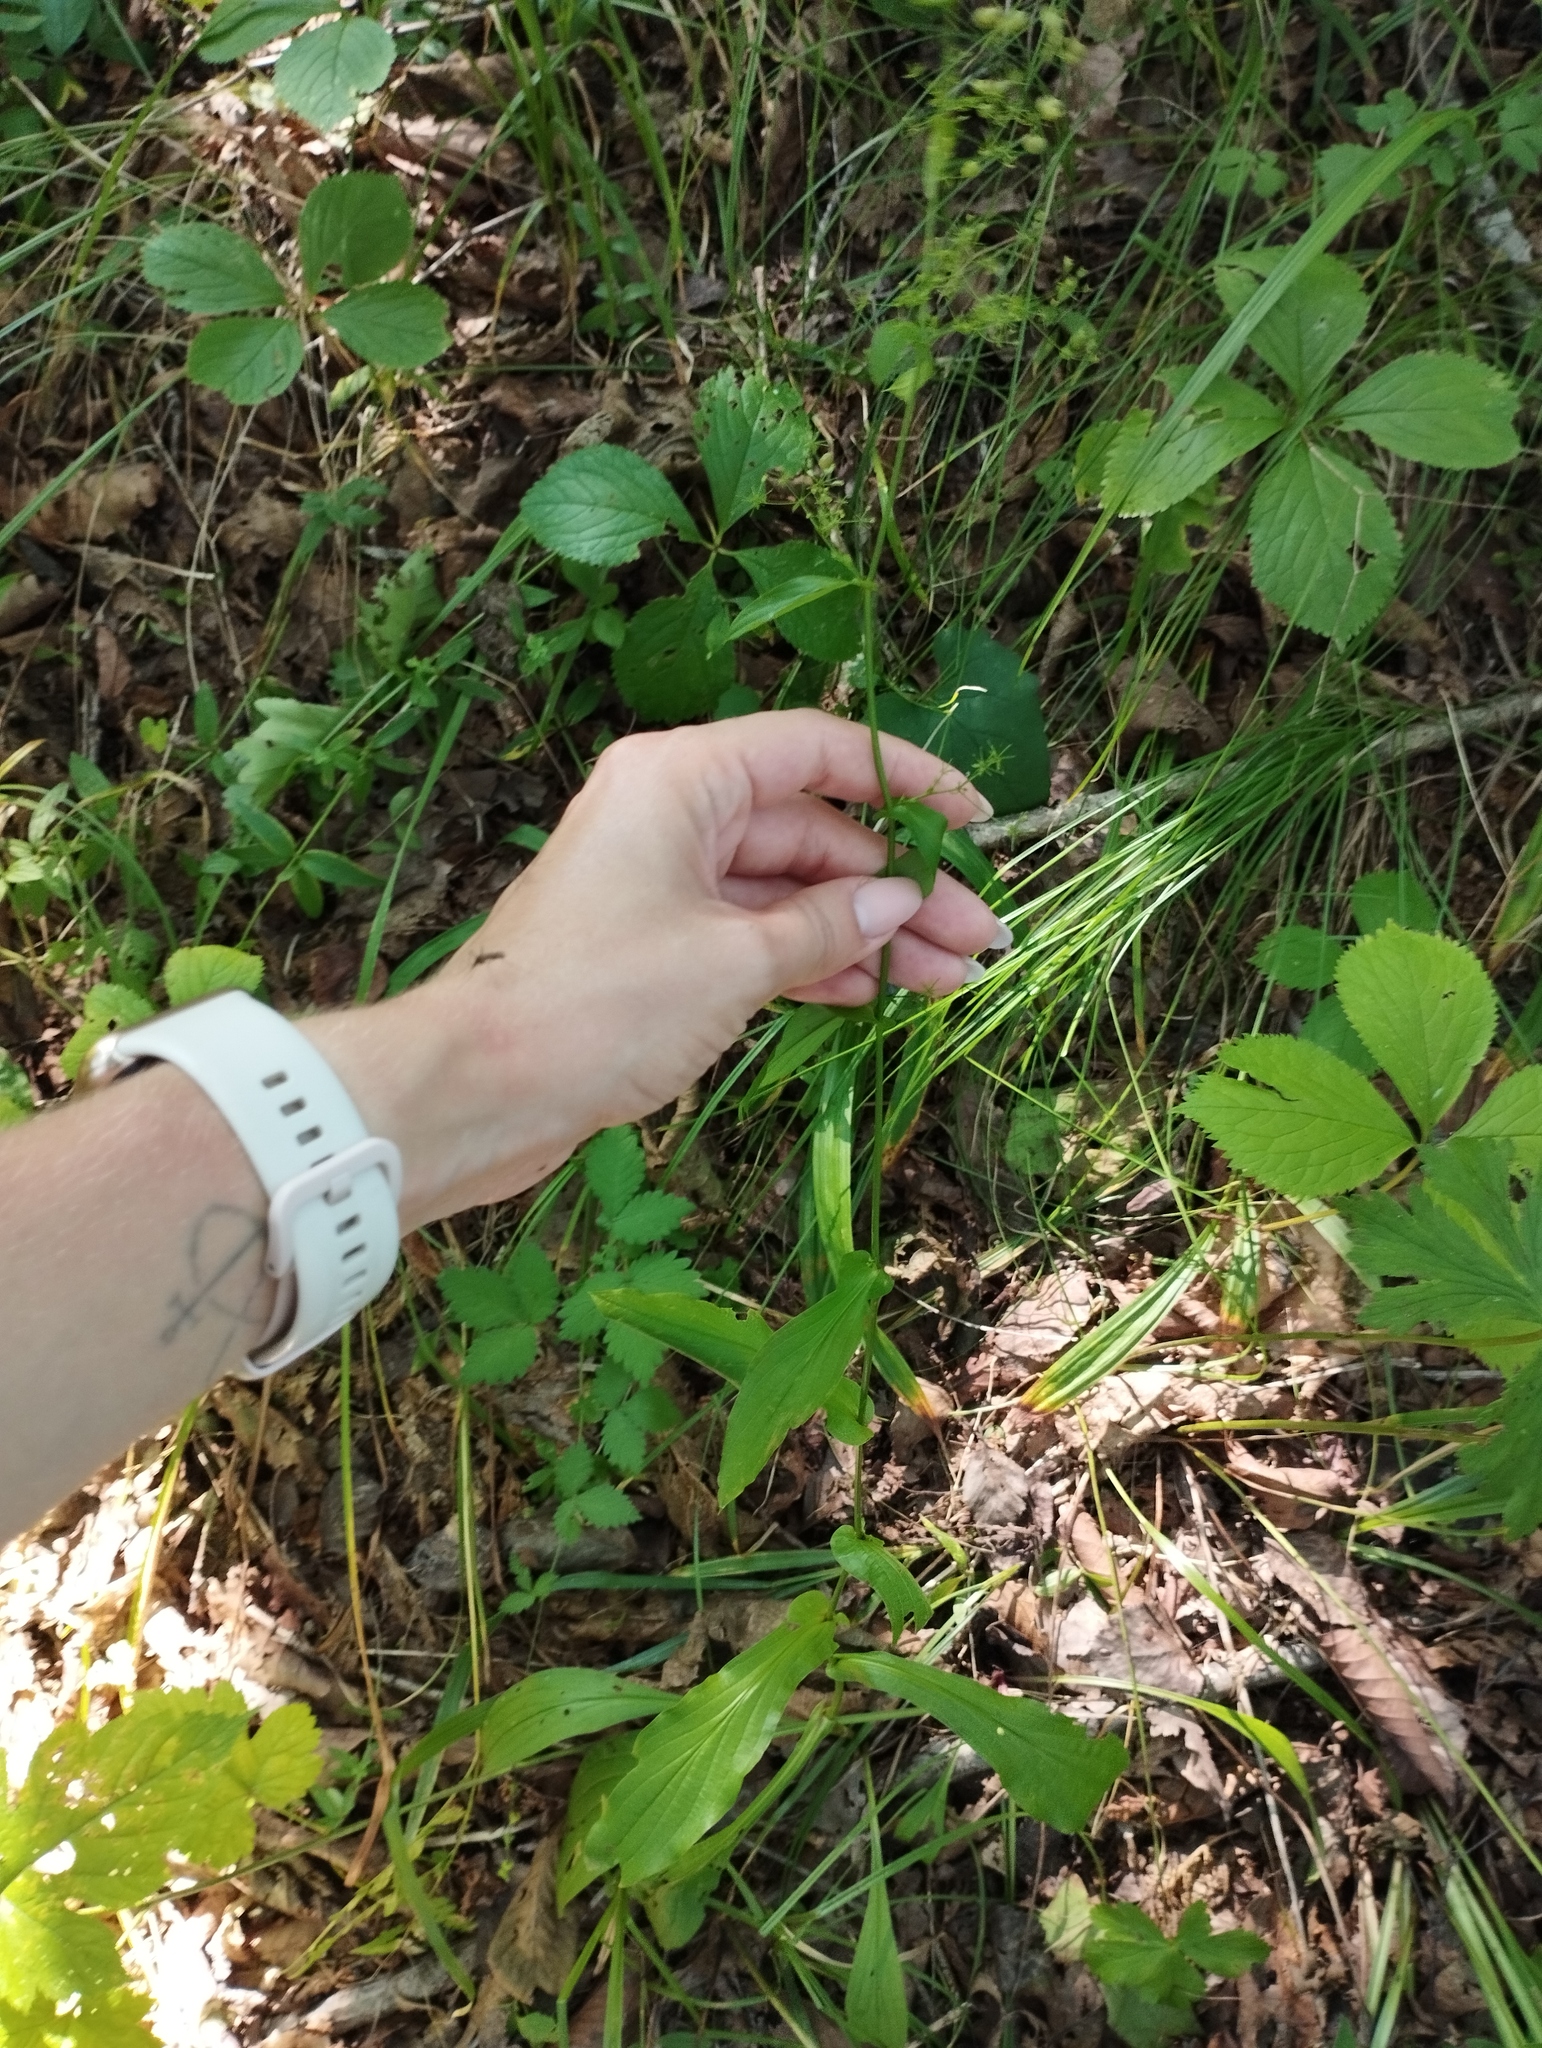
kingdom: Plantae
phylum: Tracheophyta
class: Magnoliopsida
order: Apiales
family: Apiaceae
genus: Bupleurum
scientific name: Bupleurum longiradiatum
